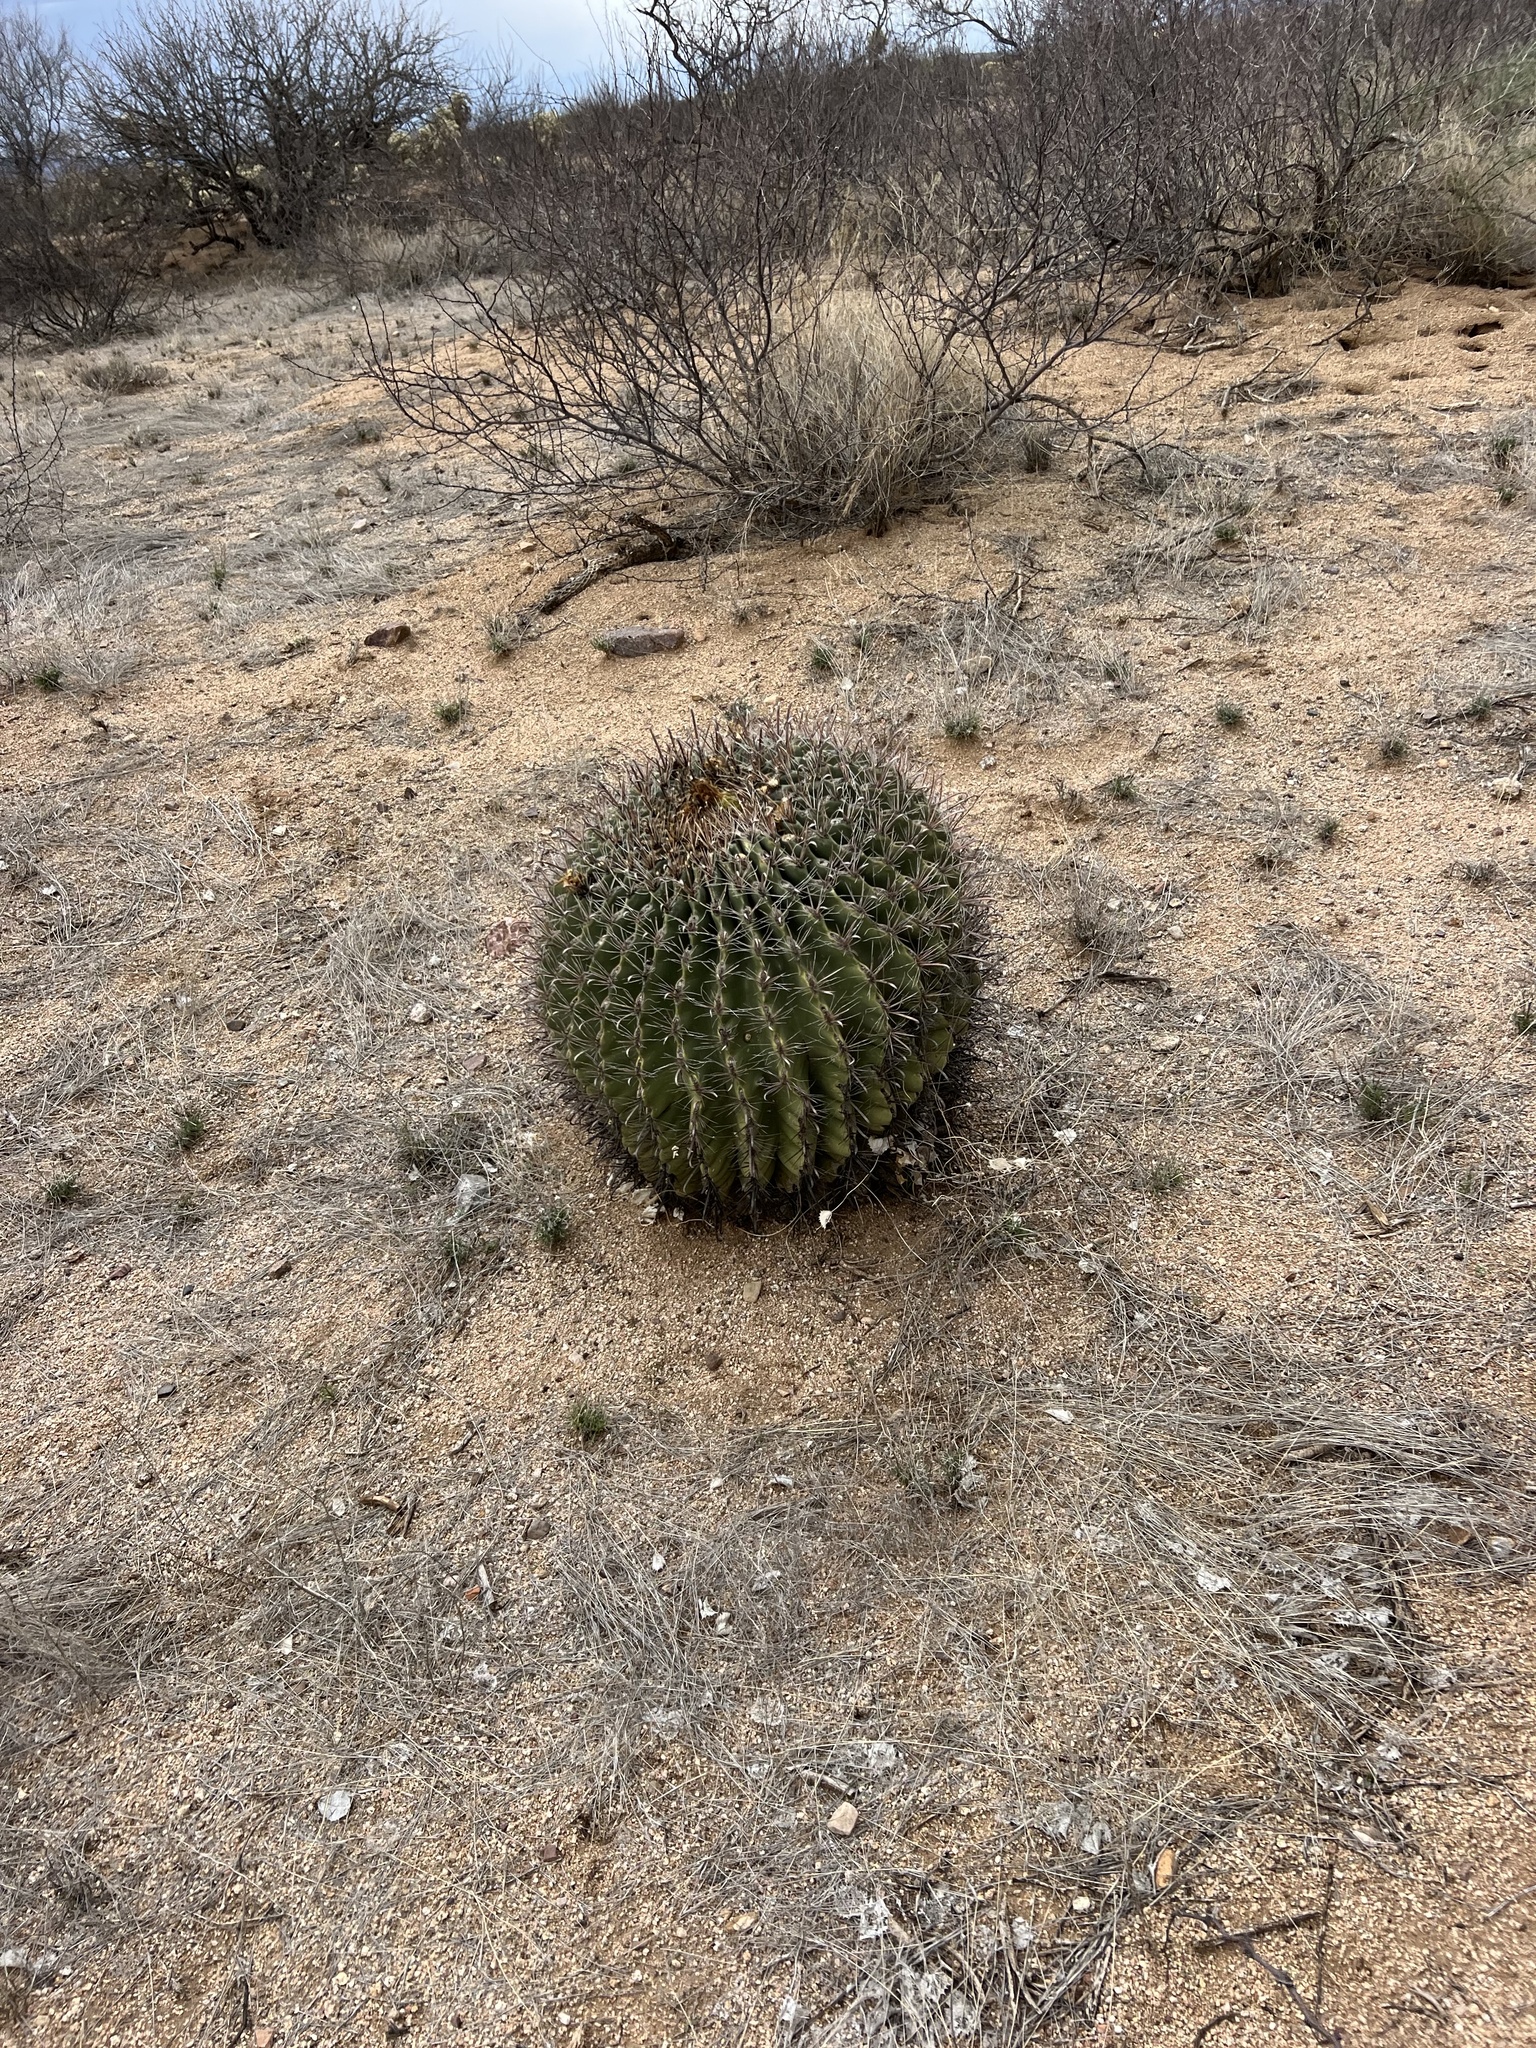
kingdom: Plantae
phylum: Tracheophyta
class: Magnoliopsida
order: Caryophyllales
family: Cactaceae
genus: Ferocactus
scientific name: Ferocactus wislizeni
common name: Candy barrel cactus
